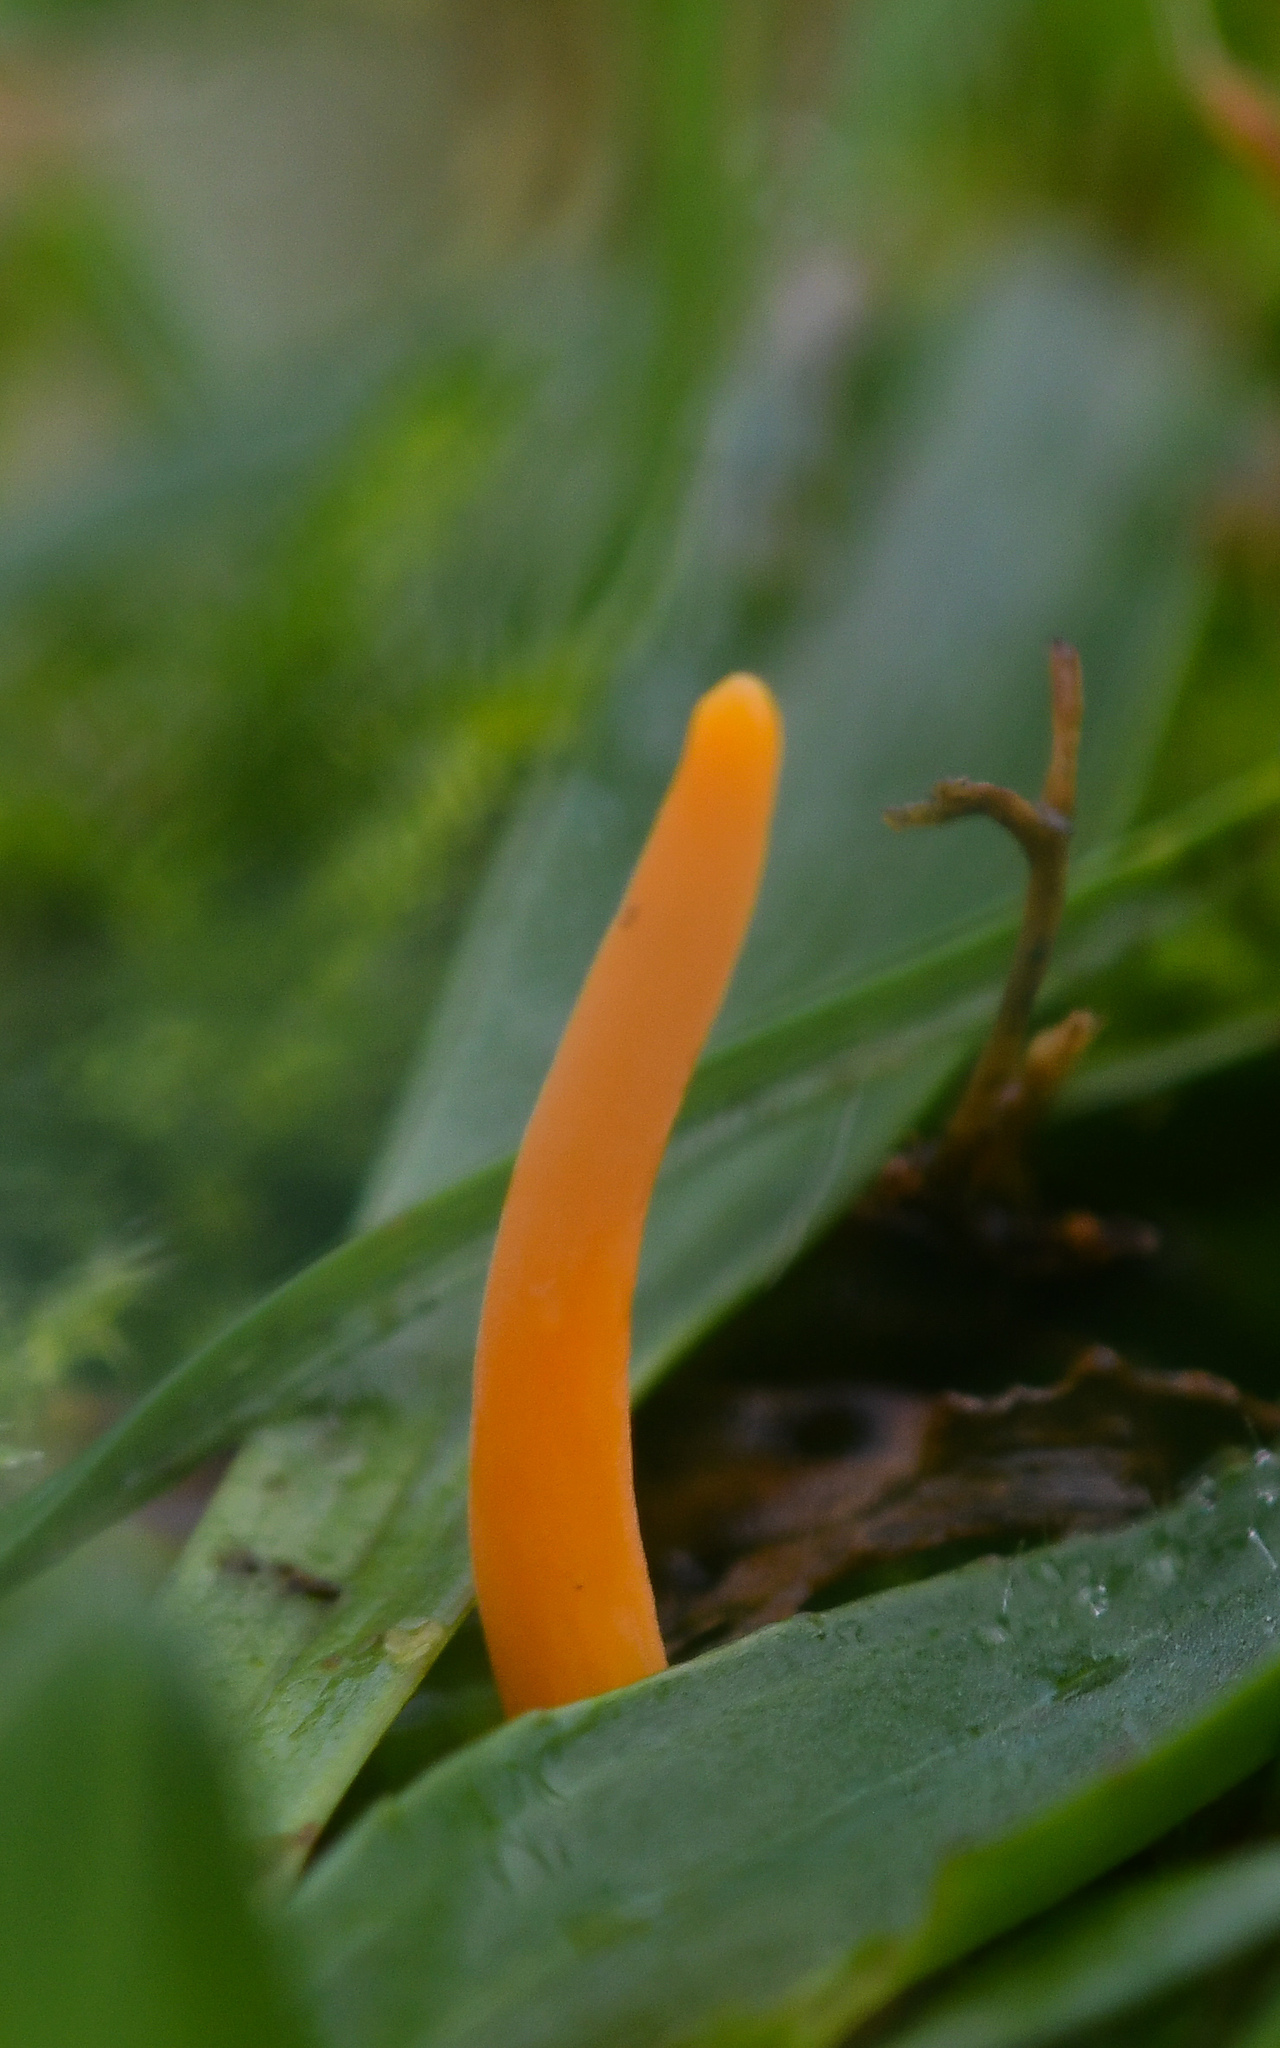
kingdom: Fungi
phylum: Basidiomycota
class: Agaricomycetes
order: Agaricales
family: Clavariaceae
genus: Clavulinopsis
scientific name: Clavulinopsis luteoalba
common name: Apricot club
